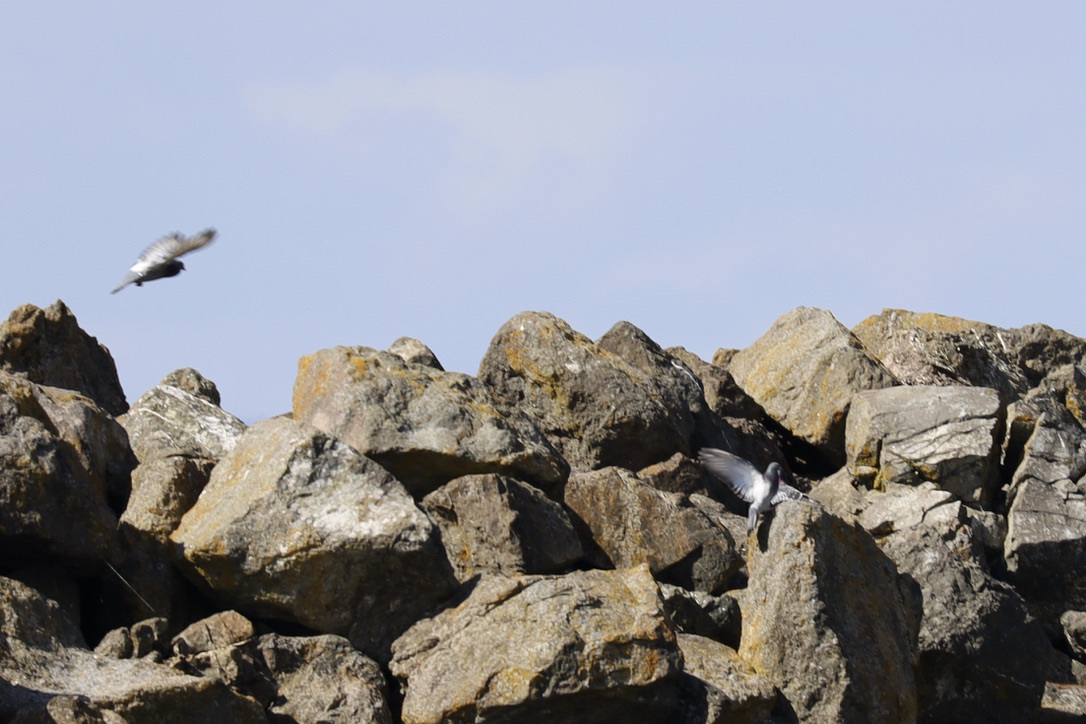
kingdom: Animalia
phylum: Chordata
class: Aves
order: Columbiformes
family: Columbidae
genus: Columba
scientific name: Columba livia
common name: Rock pigeon
